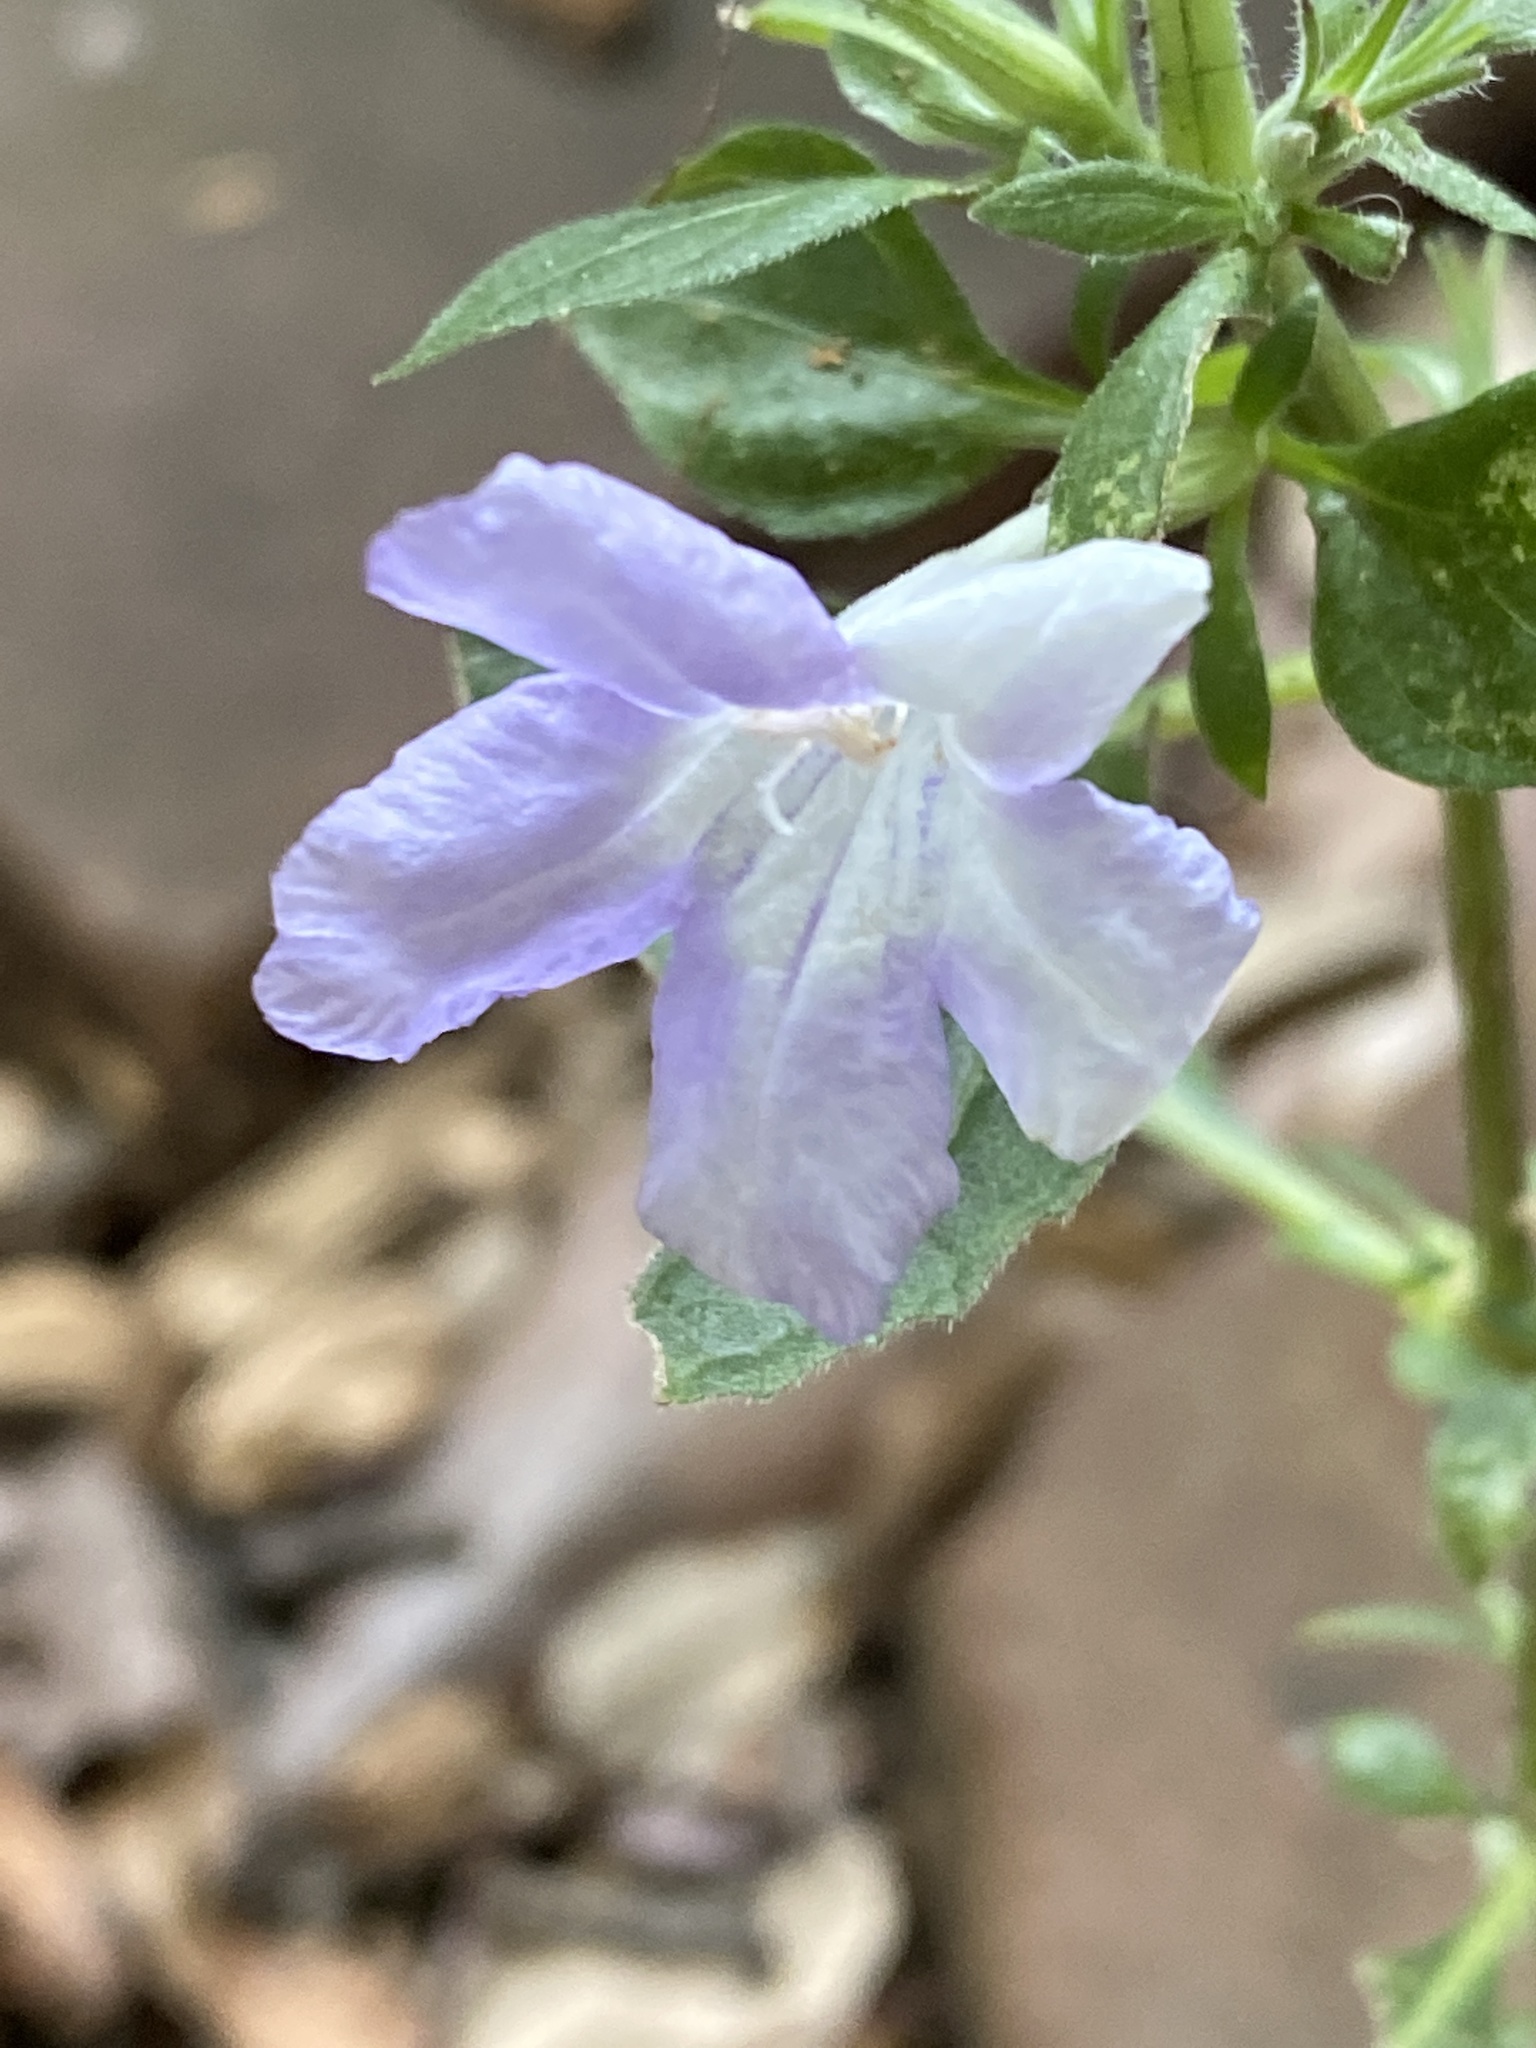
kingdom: Plantae
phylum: Tracheophyta
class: Magnoliopsida
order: Lamiales
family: Acanthaceae
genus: Ruellia
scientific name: Ruellia drummondiana
